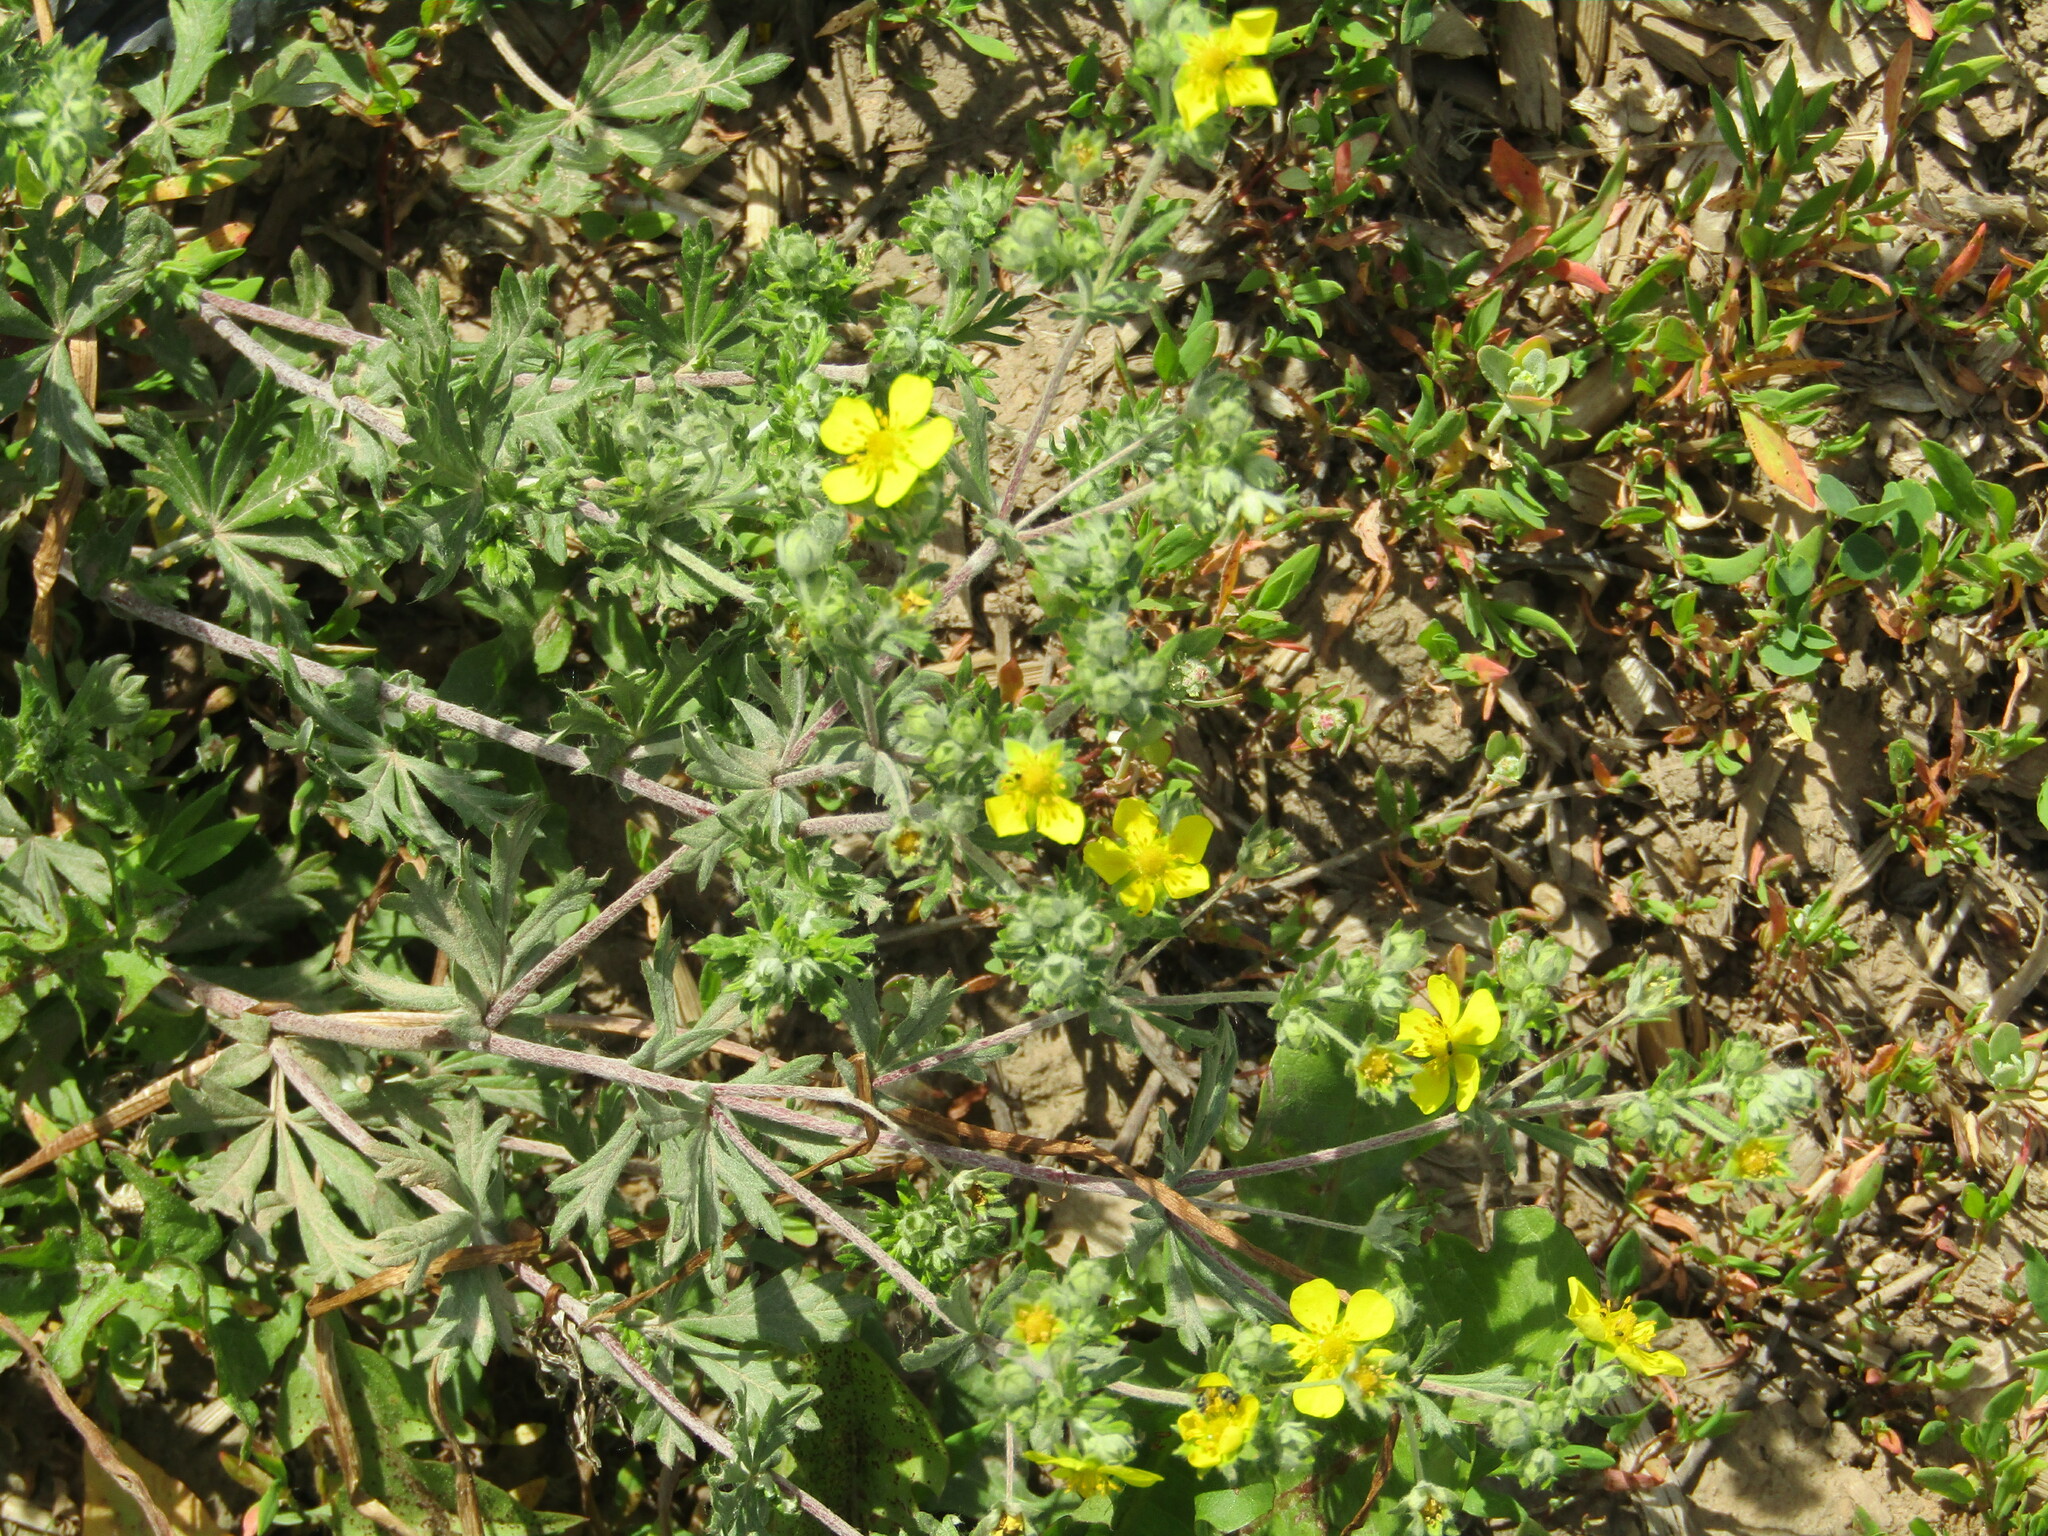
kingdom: Plantae
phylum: Tracheophyta
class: Magnoliopsida
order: Rosales
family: Rosaceae
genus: Potentilla
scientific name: Potentilla argentea
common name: Hoary cinquefoil
